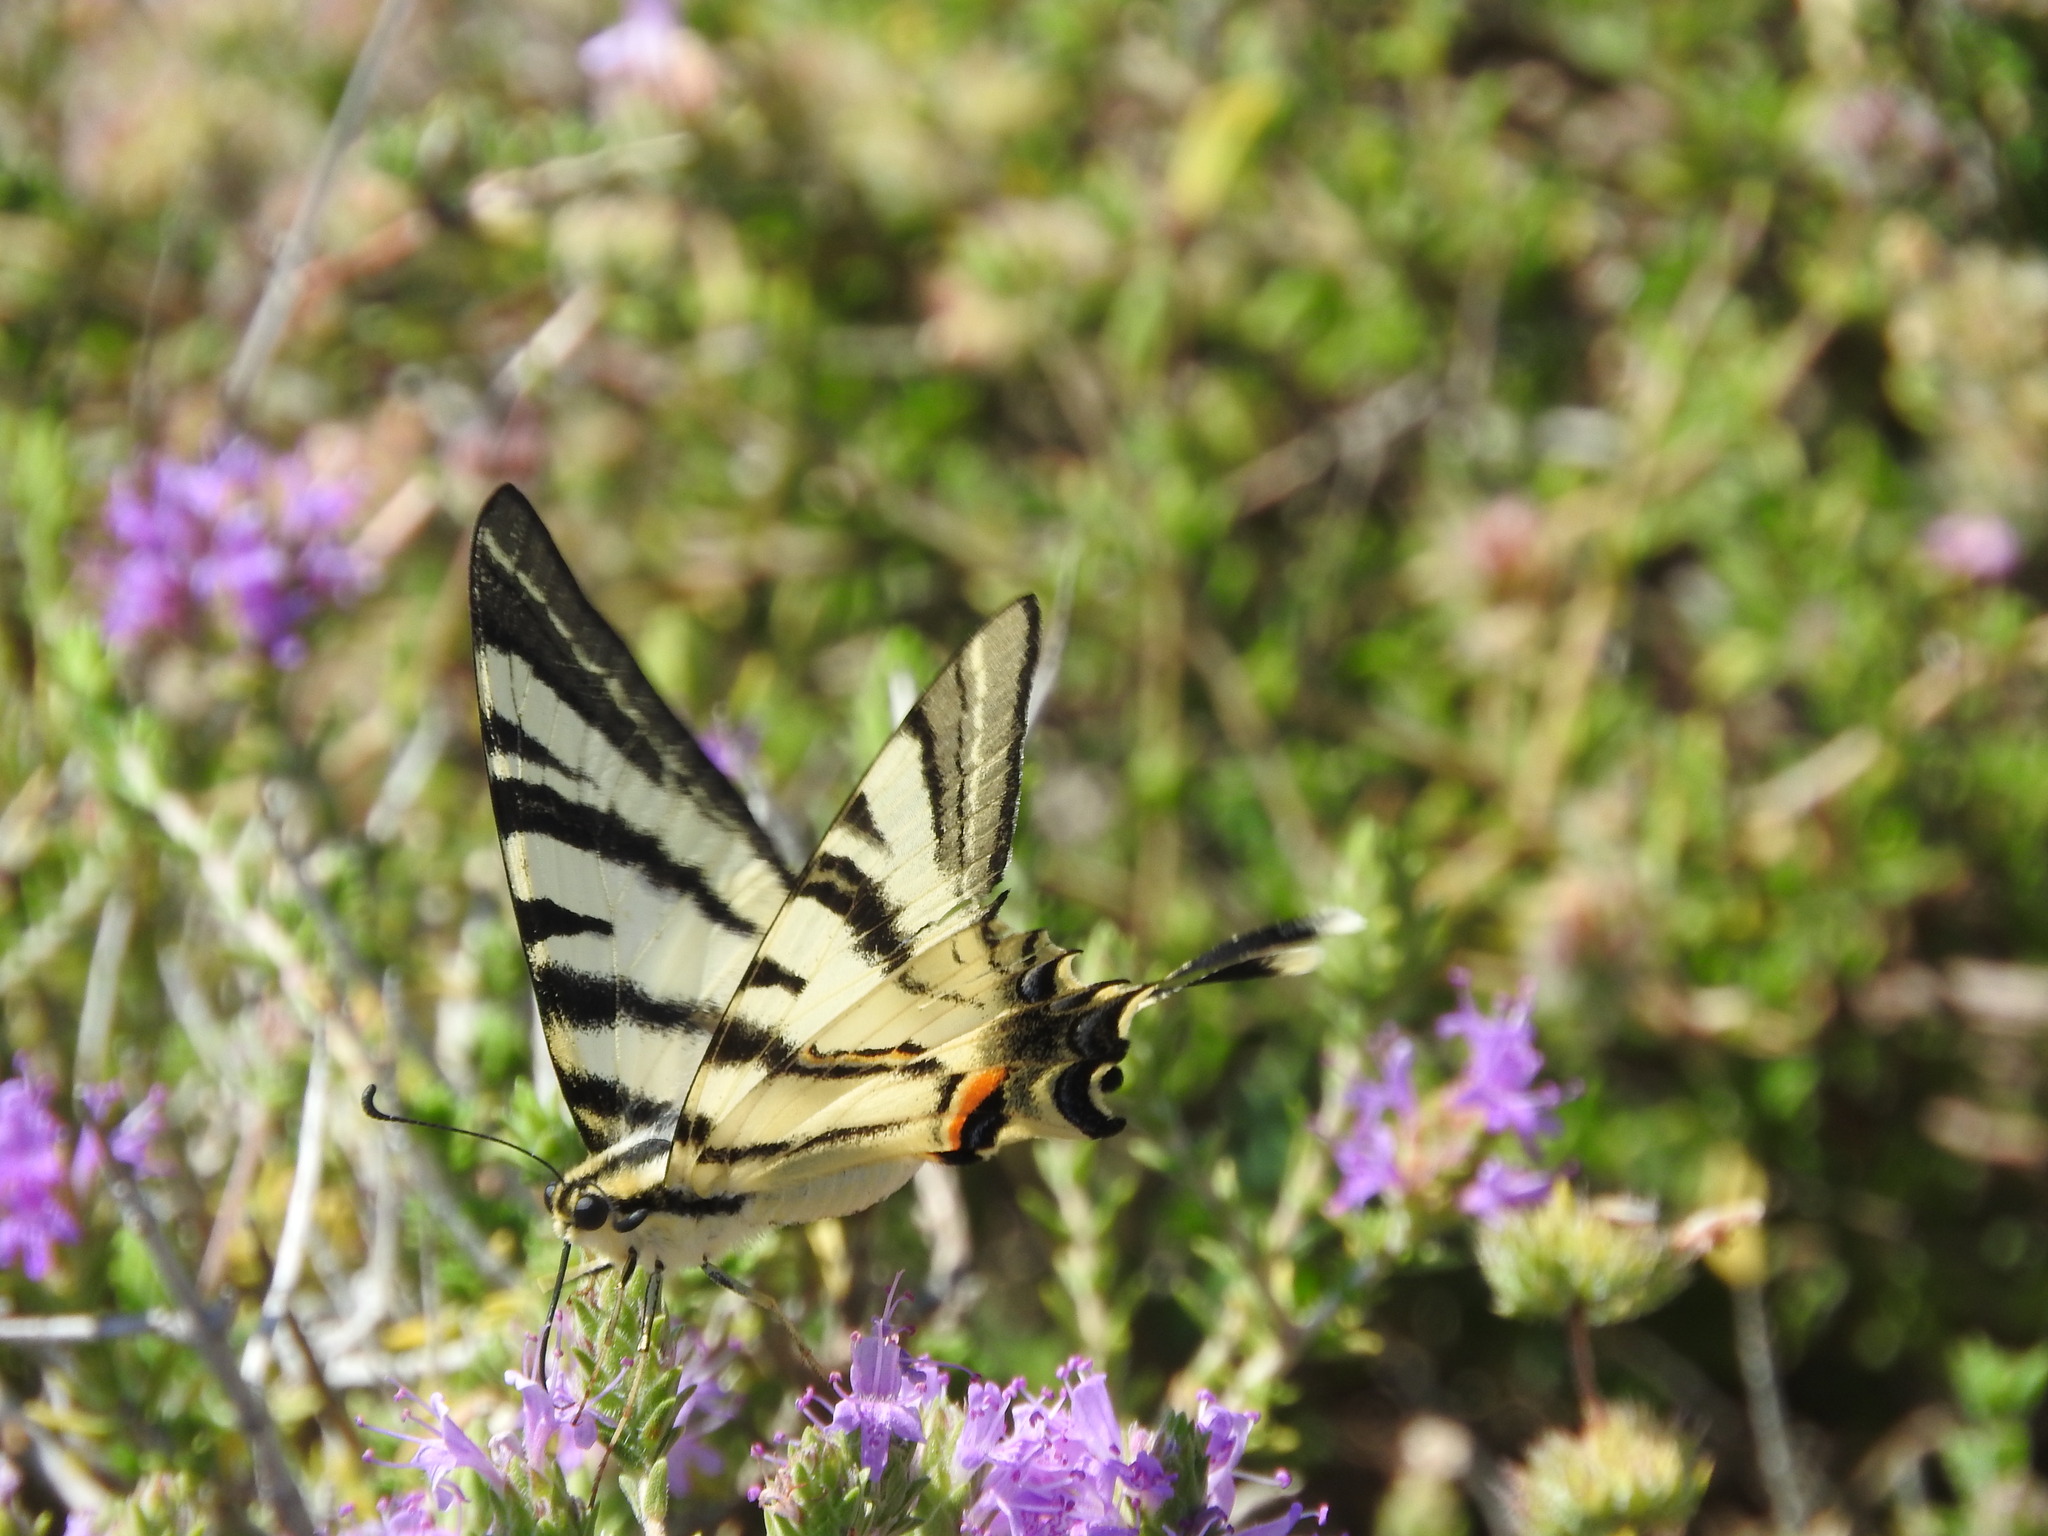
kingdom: Animalia
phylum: Arthropoda
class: Insecta
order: Lepidoptera
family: Papilionidae
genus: Iphiclides
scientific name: Iphiclides podalirius
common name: Scarce swallowtail
